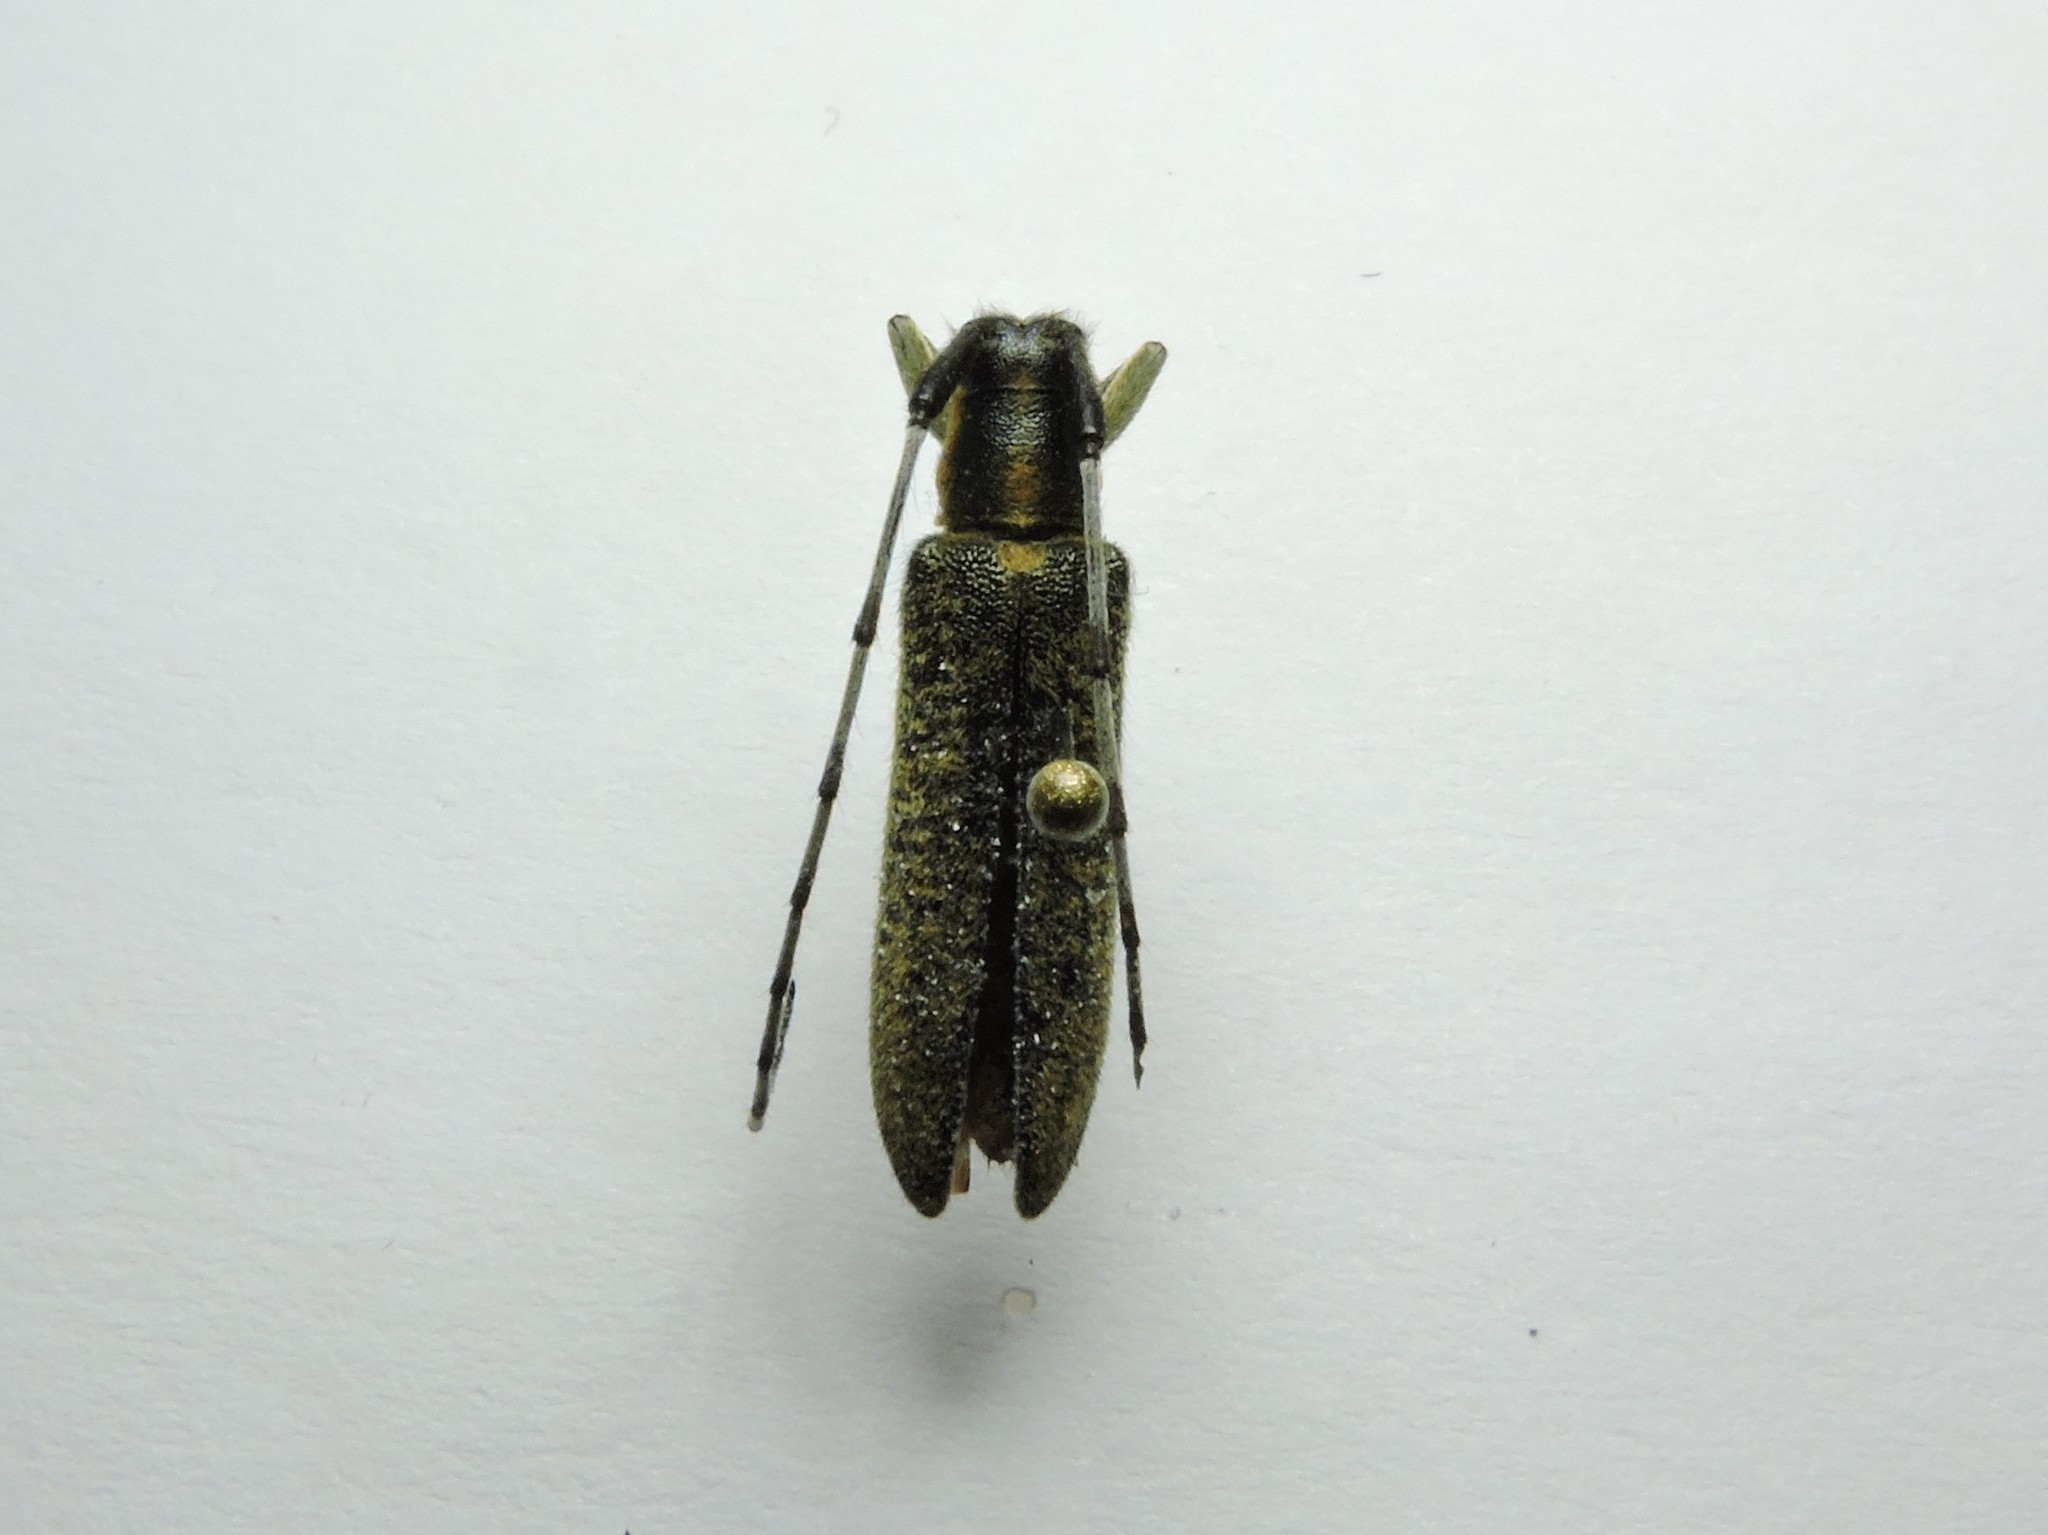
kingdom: Animalia
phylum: Arthropoda
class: Insecta
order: Coleoptera
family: Cerambycidae
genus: Agapanthia
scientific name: Agapanthia villosoviridescens
